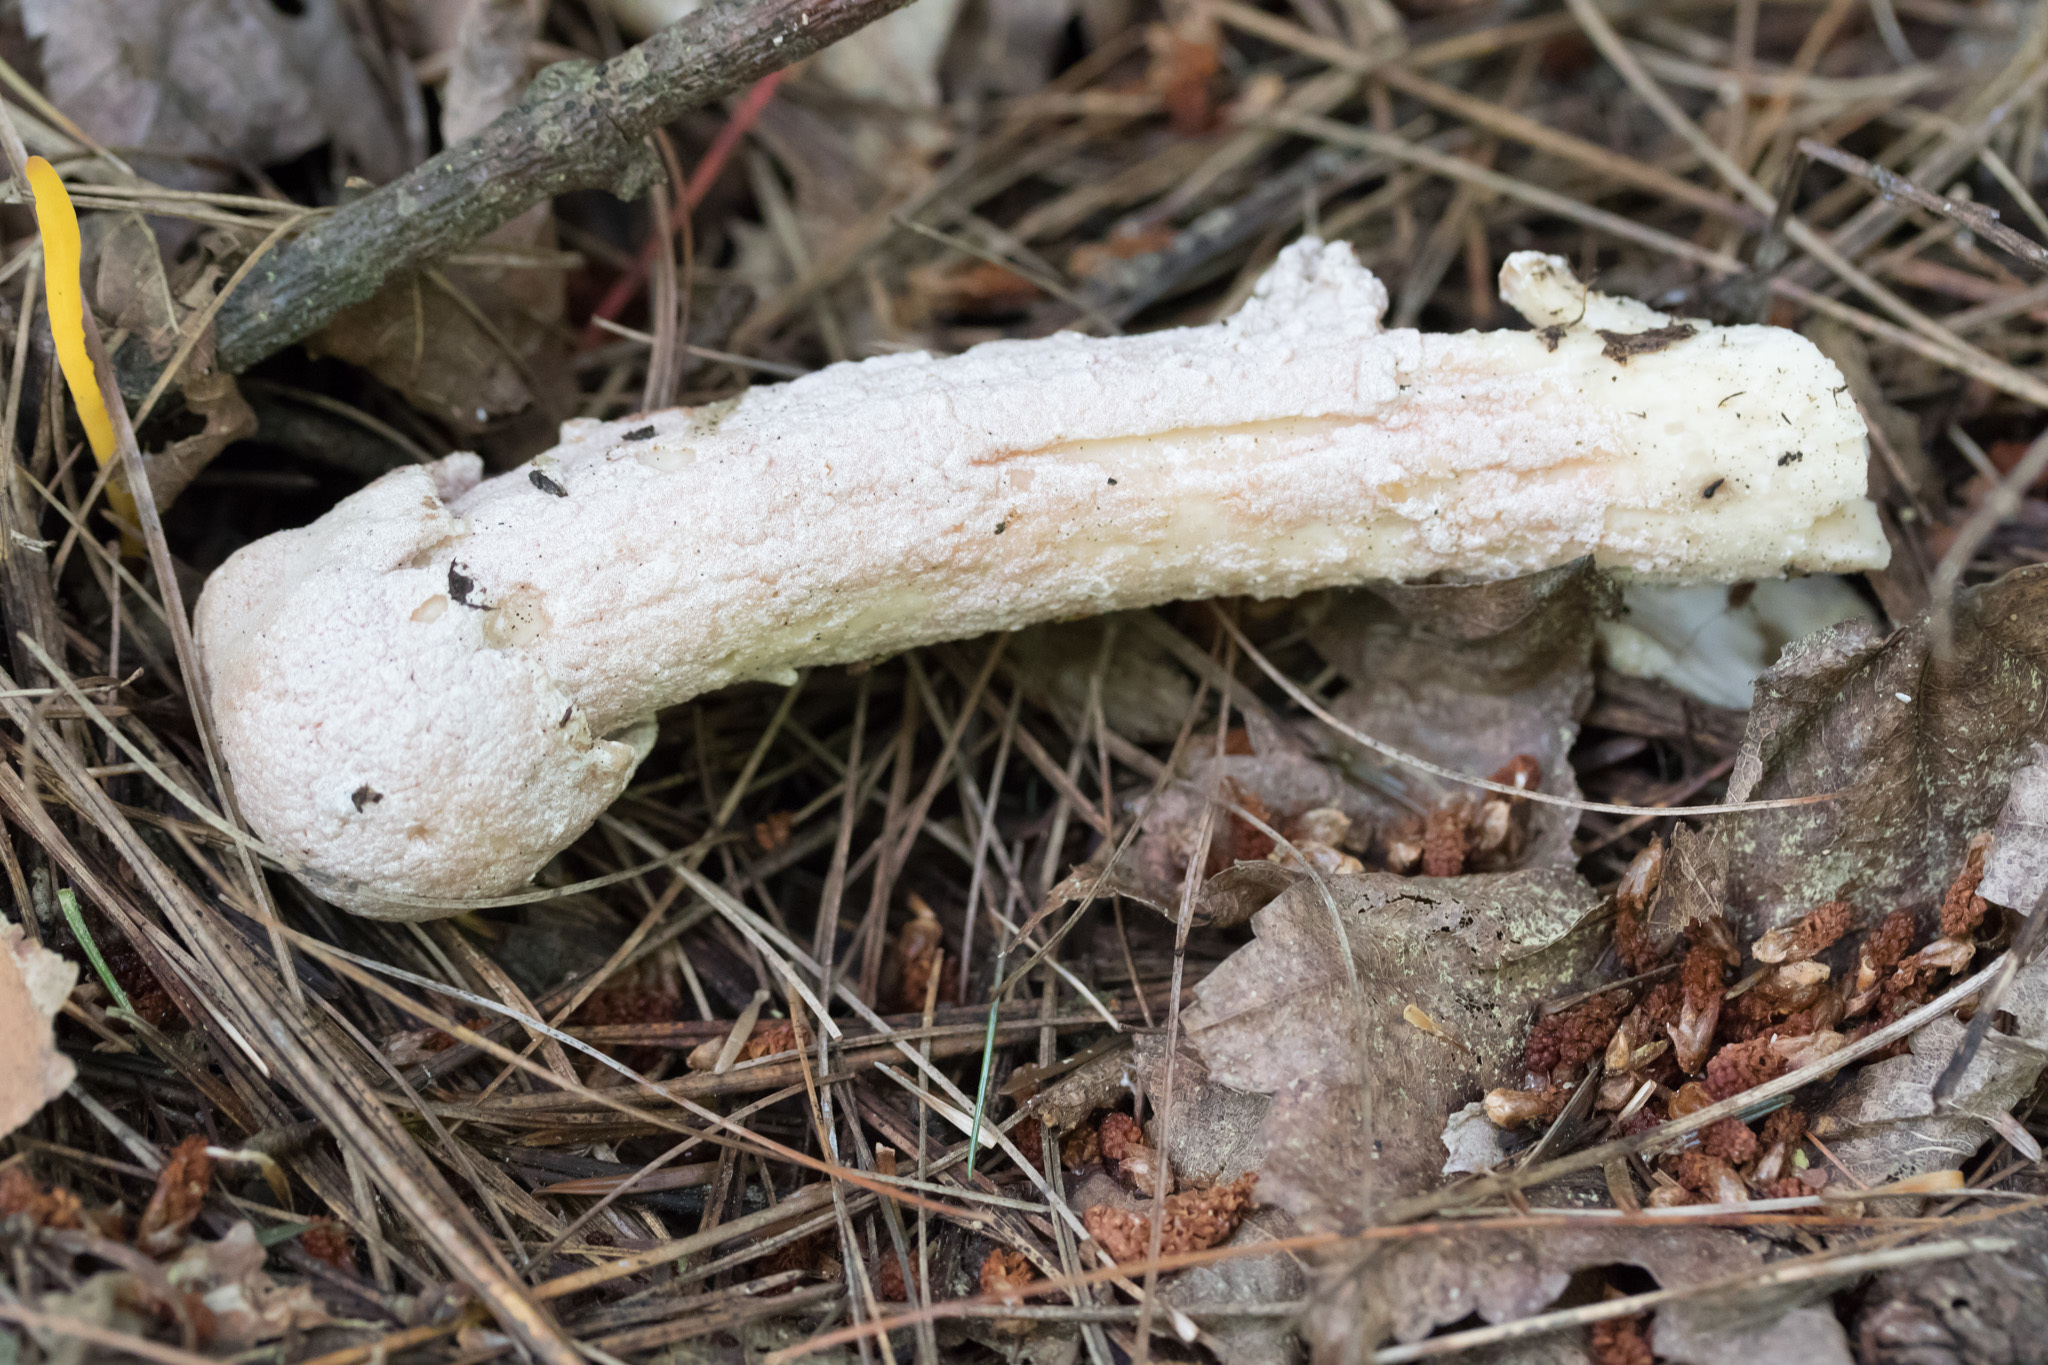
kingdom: Fungi
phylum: Ascomycota
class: Sordariomycetes
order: Hypocreales
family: Hypocreaceae
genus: Hypomyces
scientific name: Hypomyces hyalinus
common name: Amanita mold
